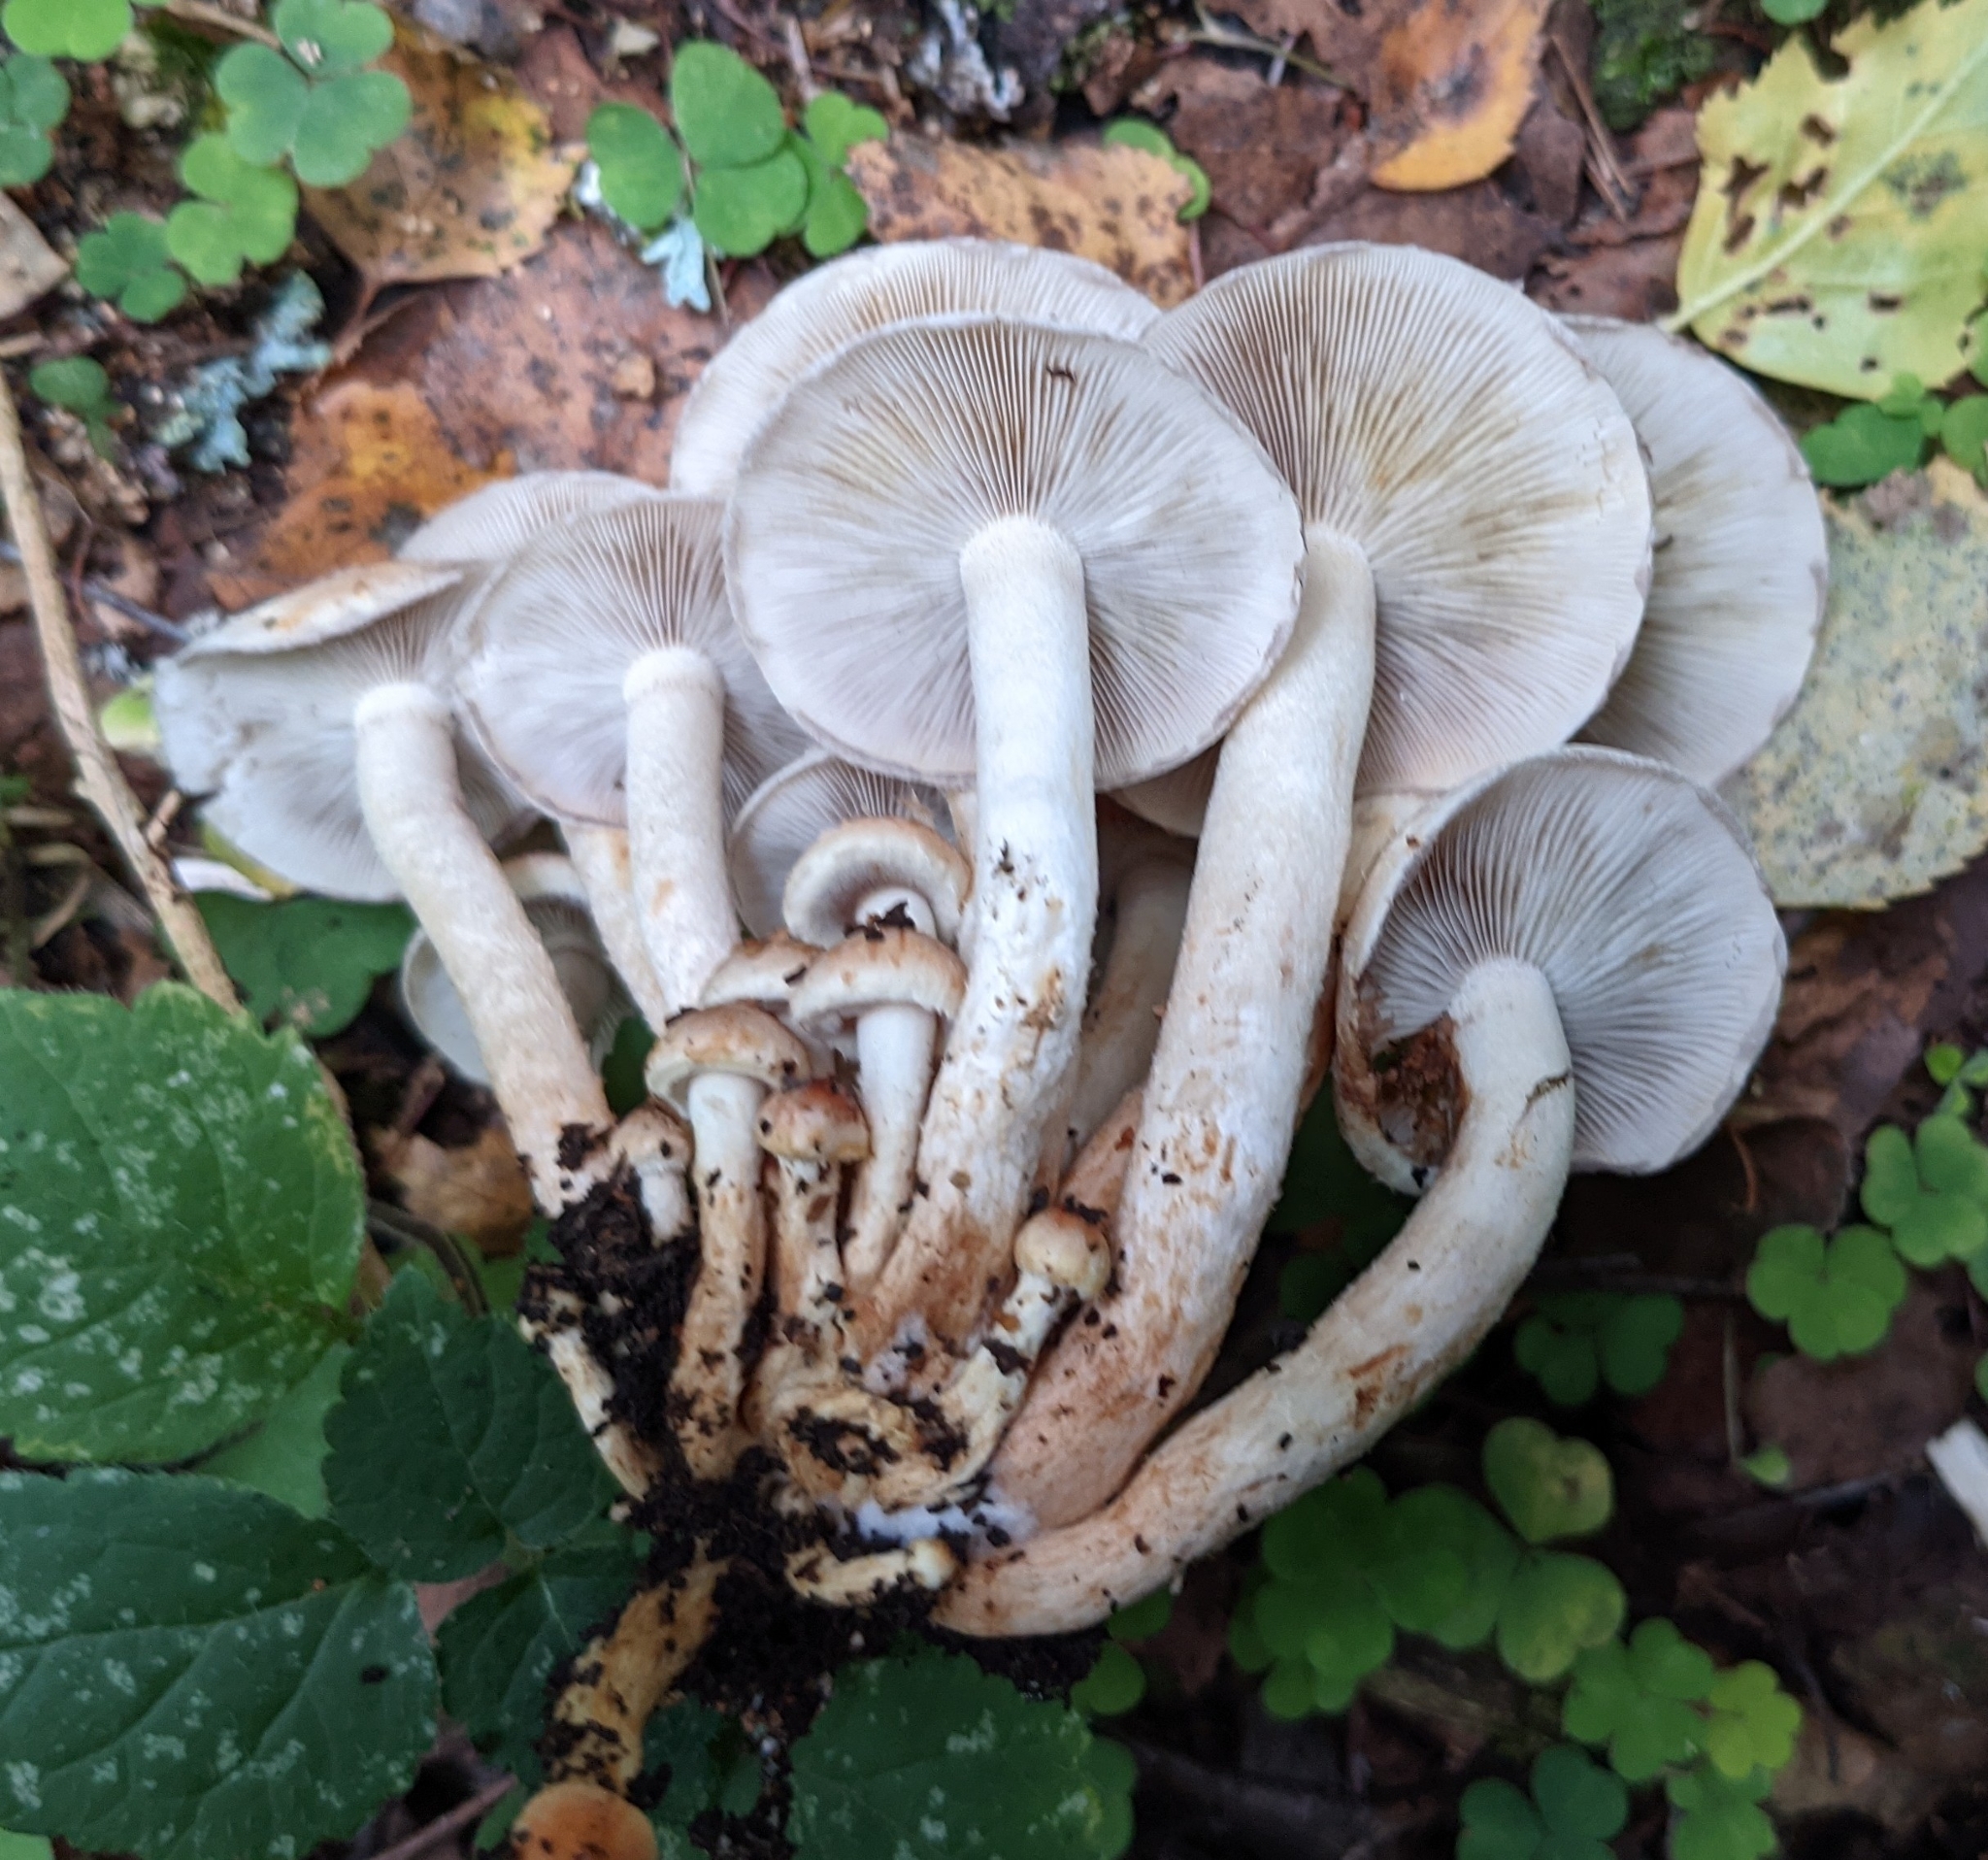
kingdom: Fungi
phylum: Basidiomycota
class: Agaricomycetes
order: Agaricales
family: Strophariaceae
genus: Hypholoma
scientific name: Hypholoma lateritium
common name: Brick caps
